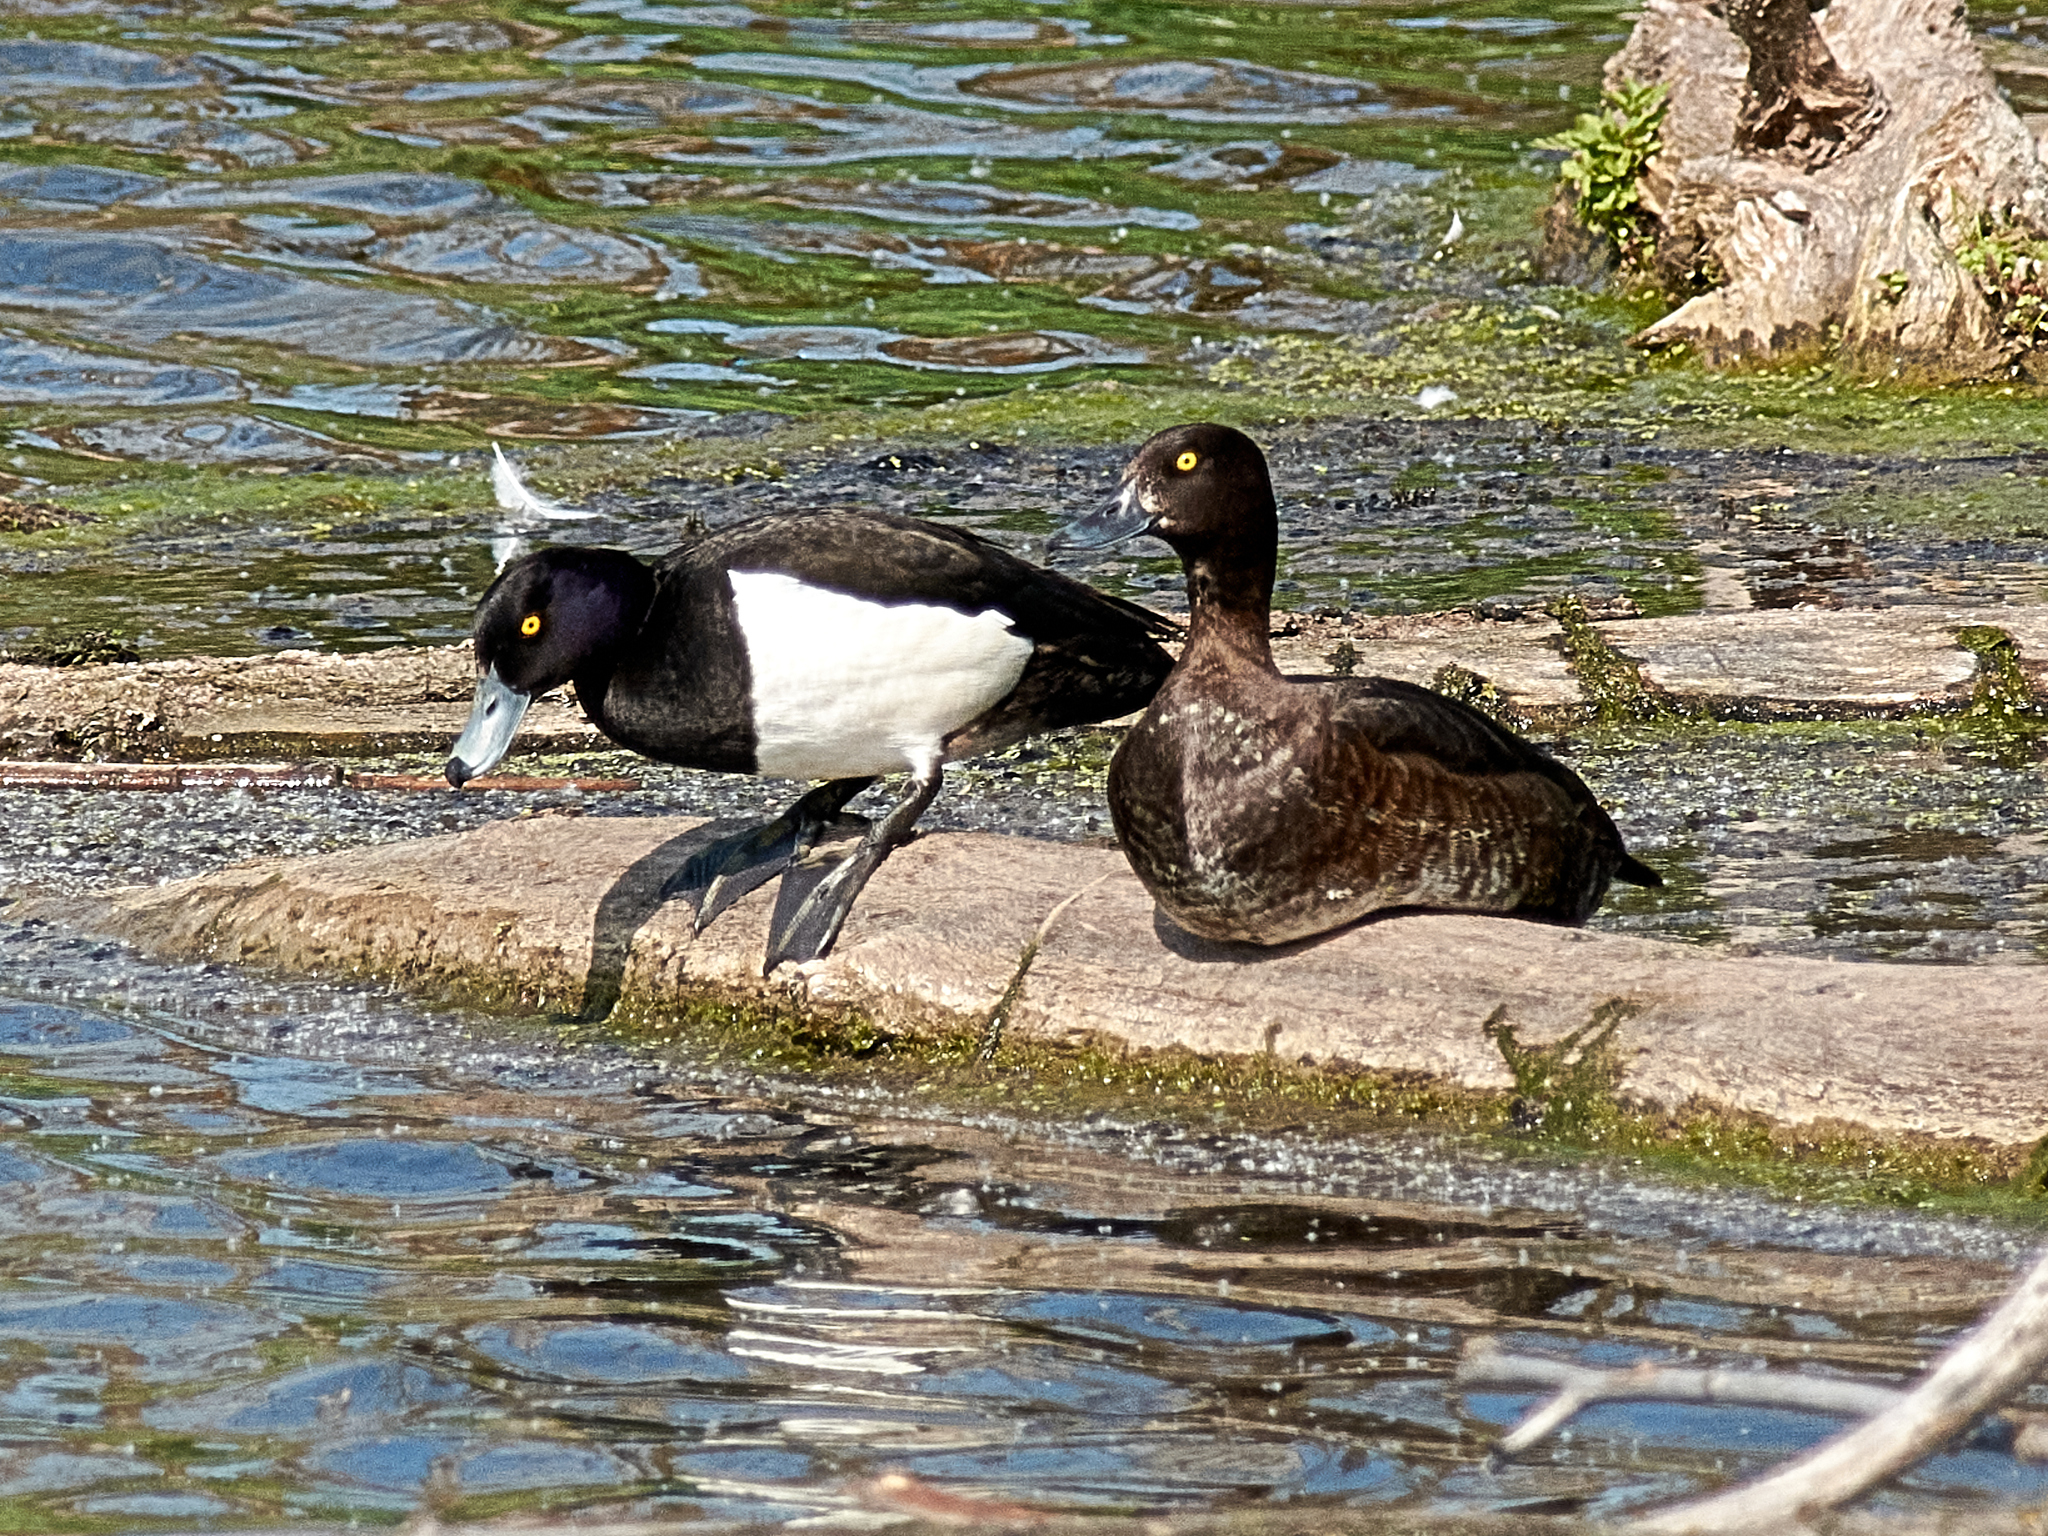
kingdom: Animalia
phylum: Chordata
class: Aves
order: Anseriformes
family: Anatidae
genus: Aythya
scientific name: Aythya fuligula
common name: Tufted duck
